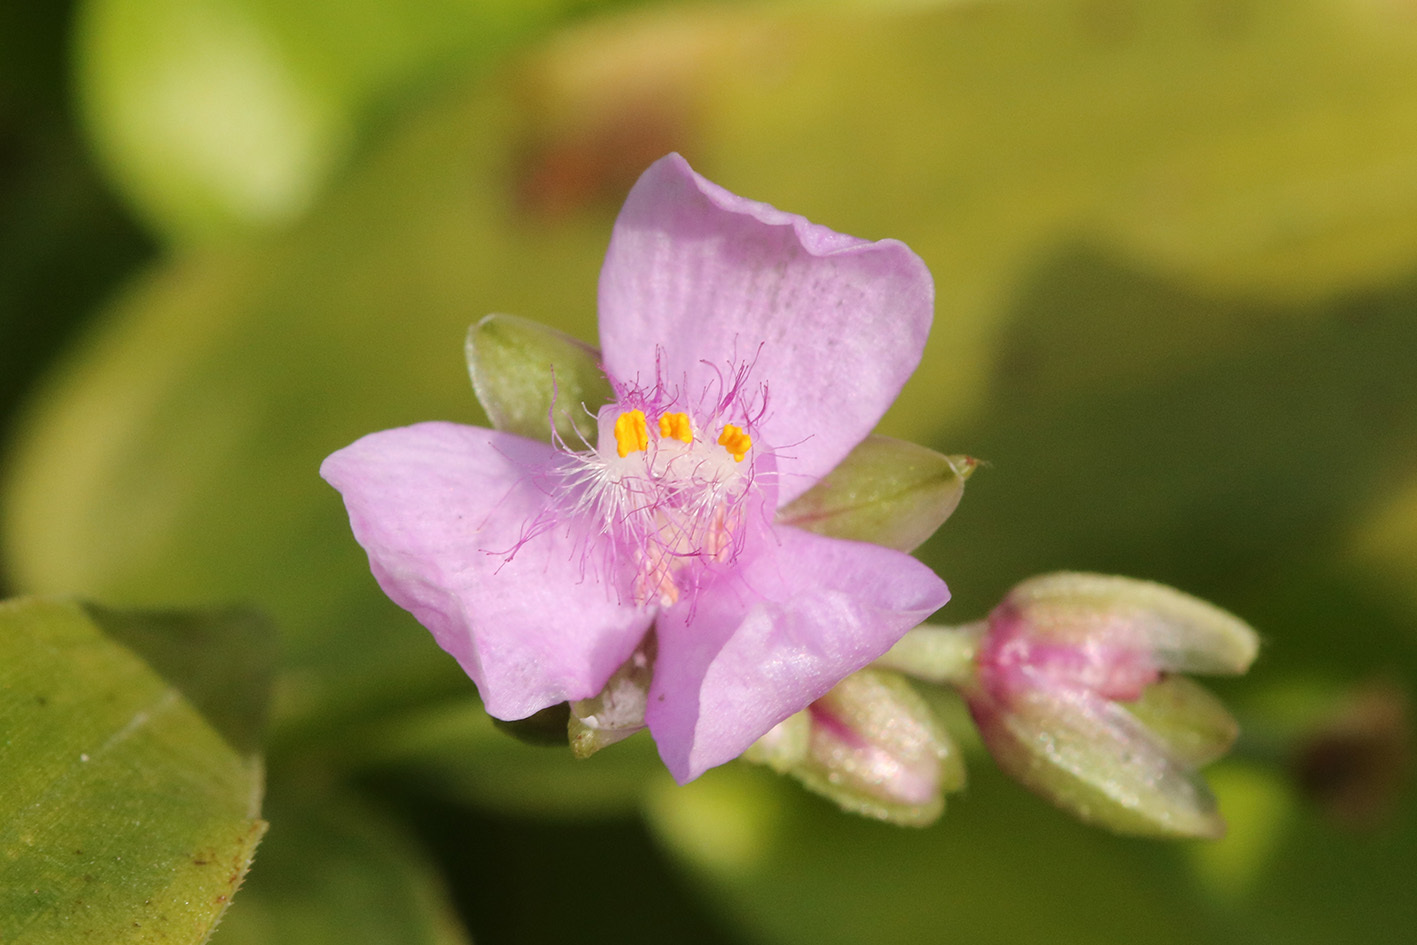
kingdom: Plantae
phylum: Tracheophyta
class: Liliopsida
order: Commelinales
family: Commelinaceae
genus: Callisia
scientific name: Callisia diuretica
